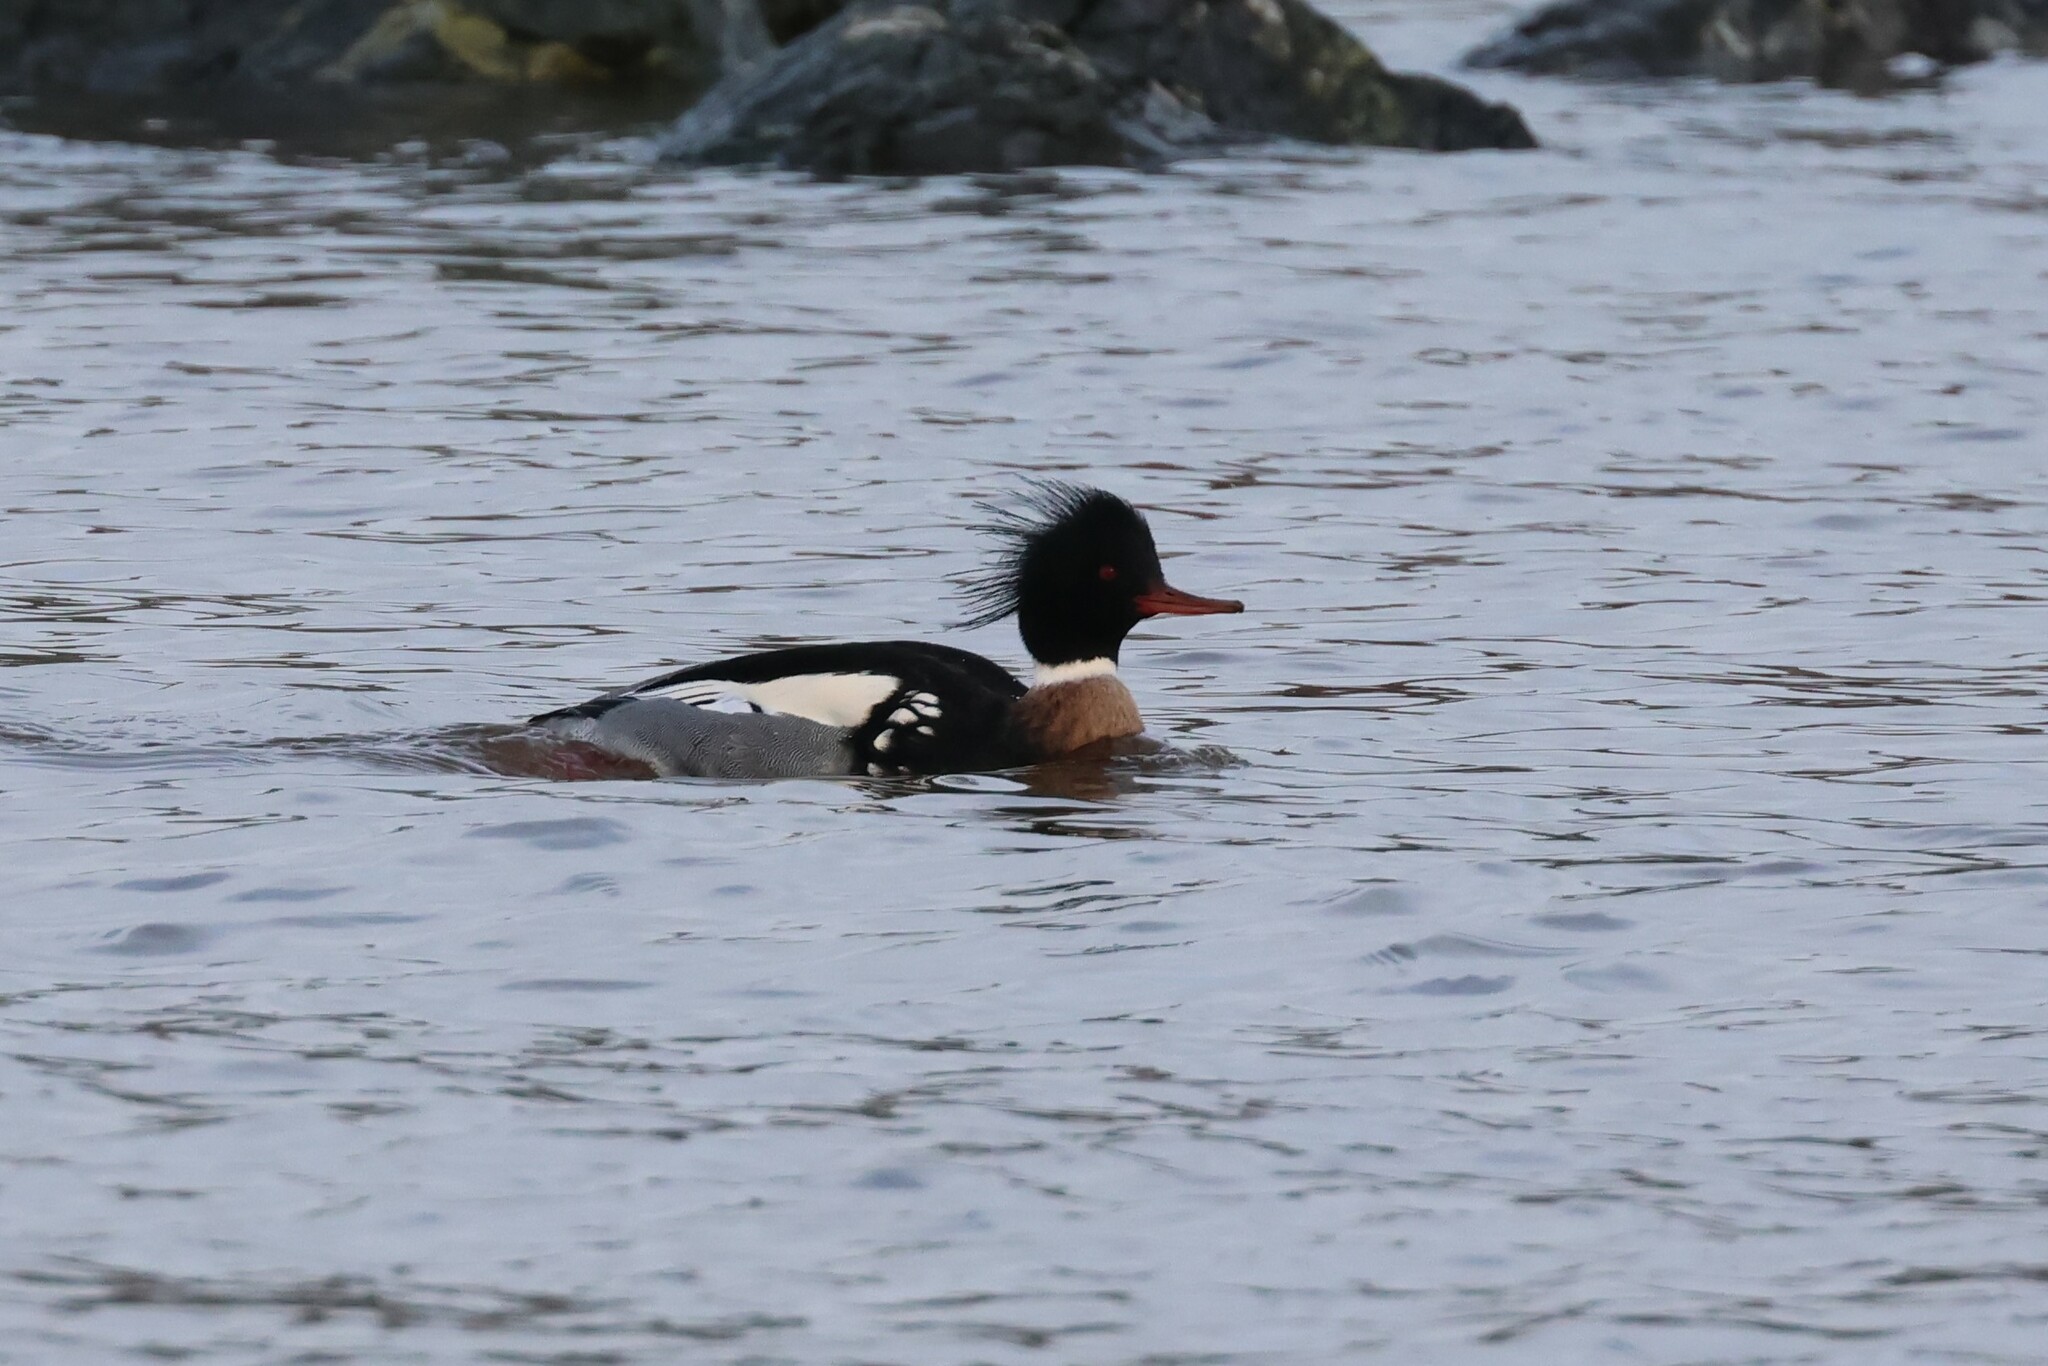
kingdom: Animalia
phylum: Chordata
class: Aves
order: Anseriformes
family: Anatidae
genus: Mergus
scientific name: Mergus serrator
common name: Red-breasted merganser
